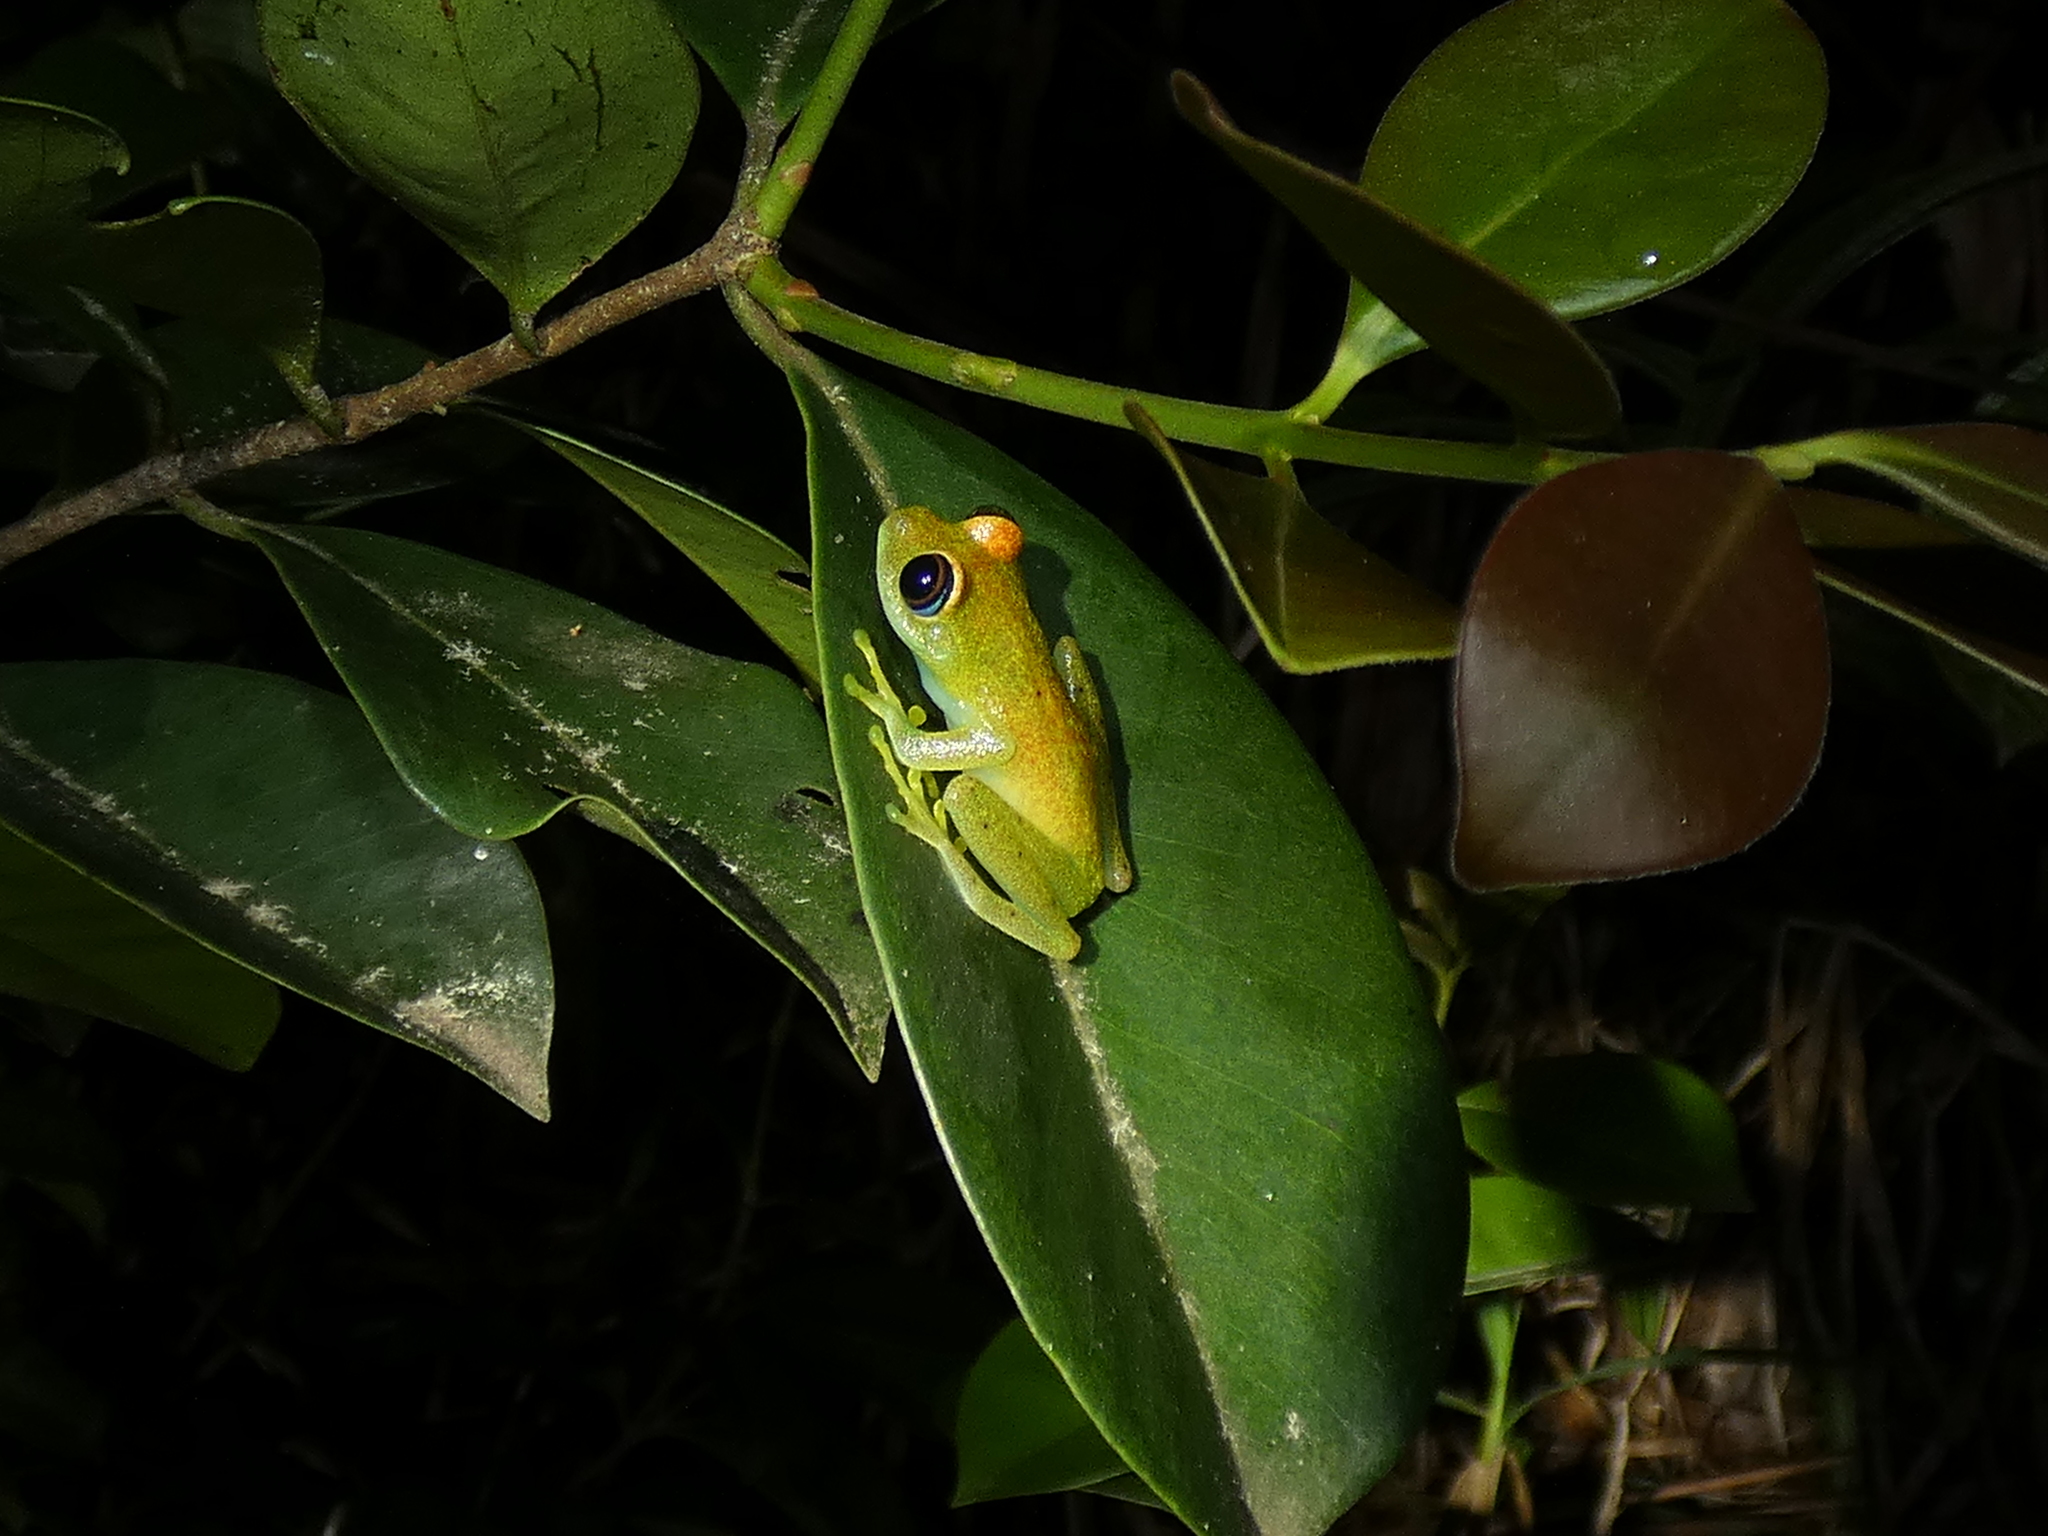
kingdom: Animalia
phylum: Chordata
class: Amphibia
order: Anura
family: Mantellidae
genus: Boophis
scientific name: Boophis viridis
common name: Green bright-eyed frog
